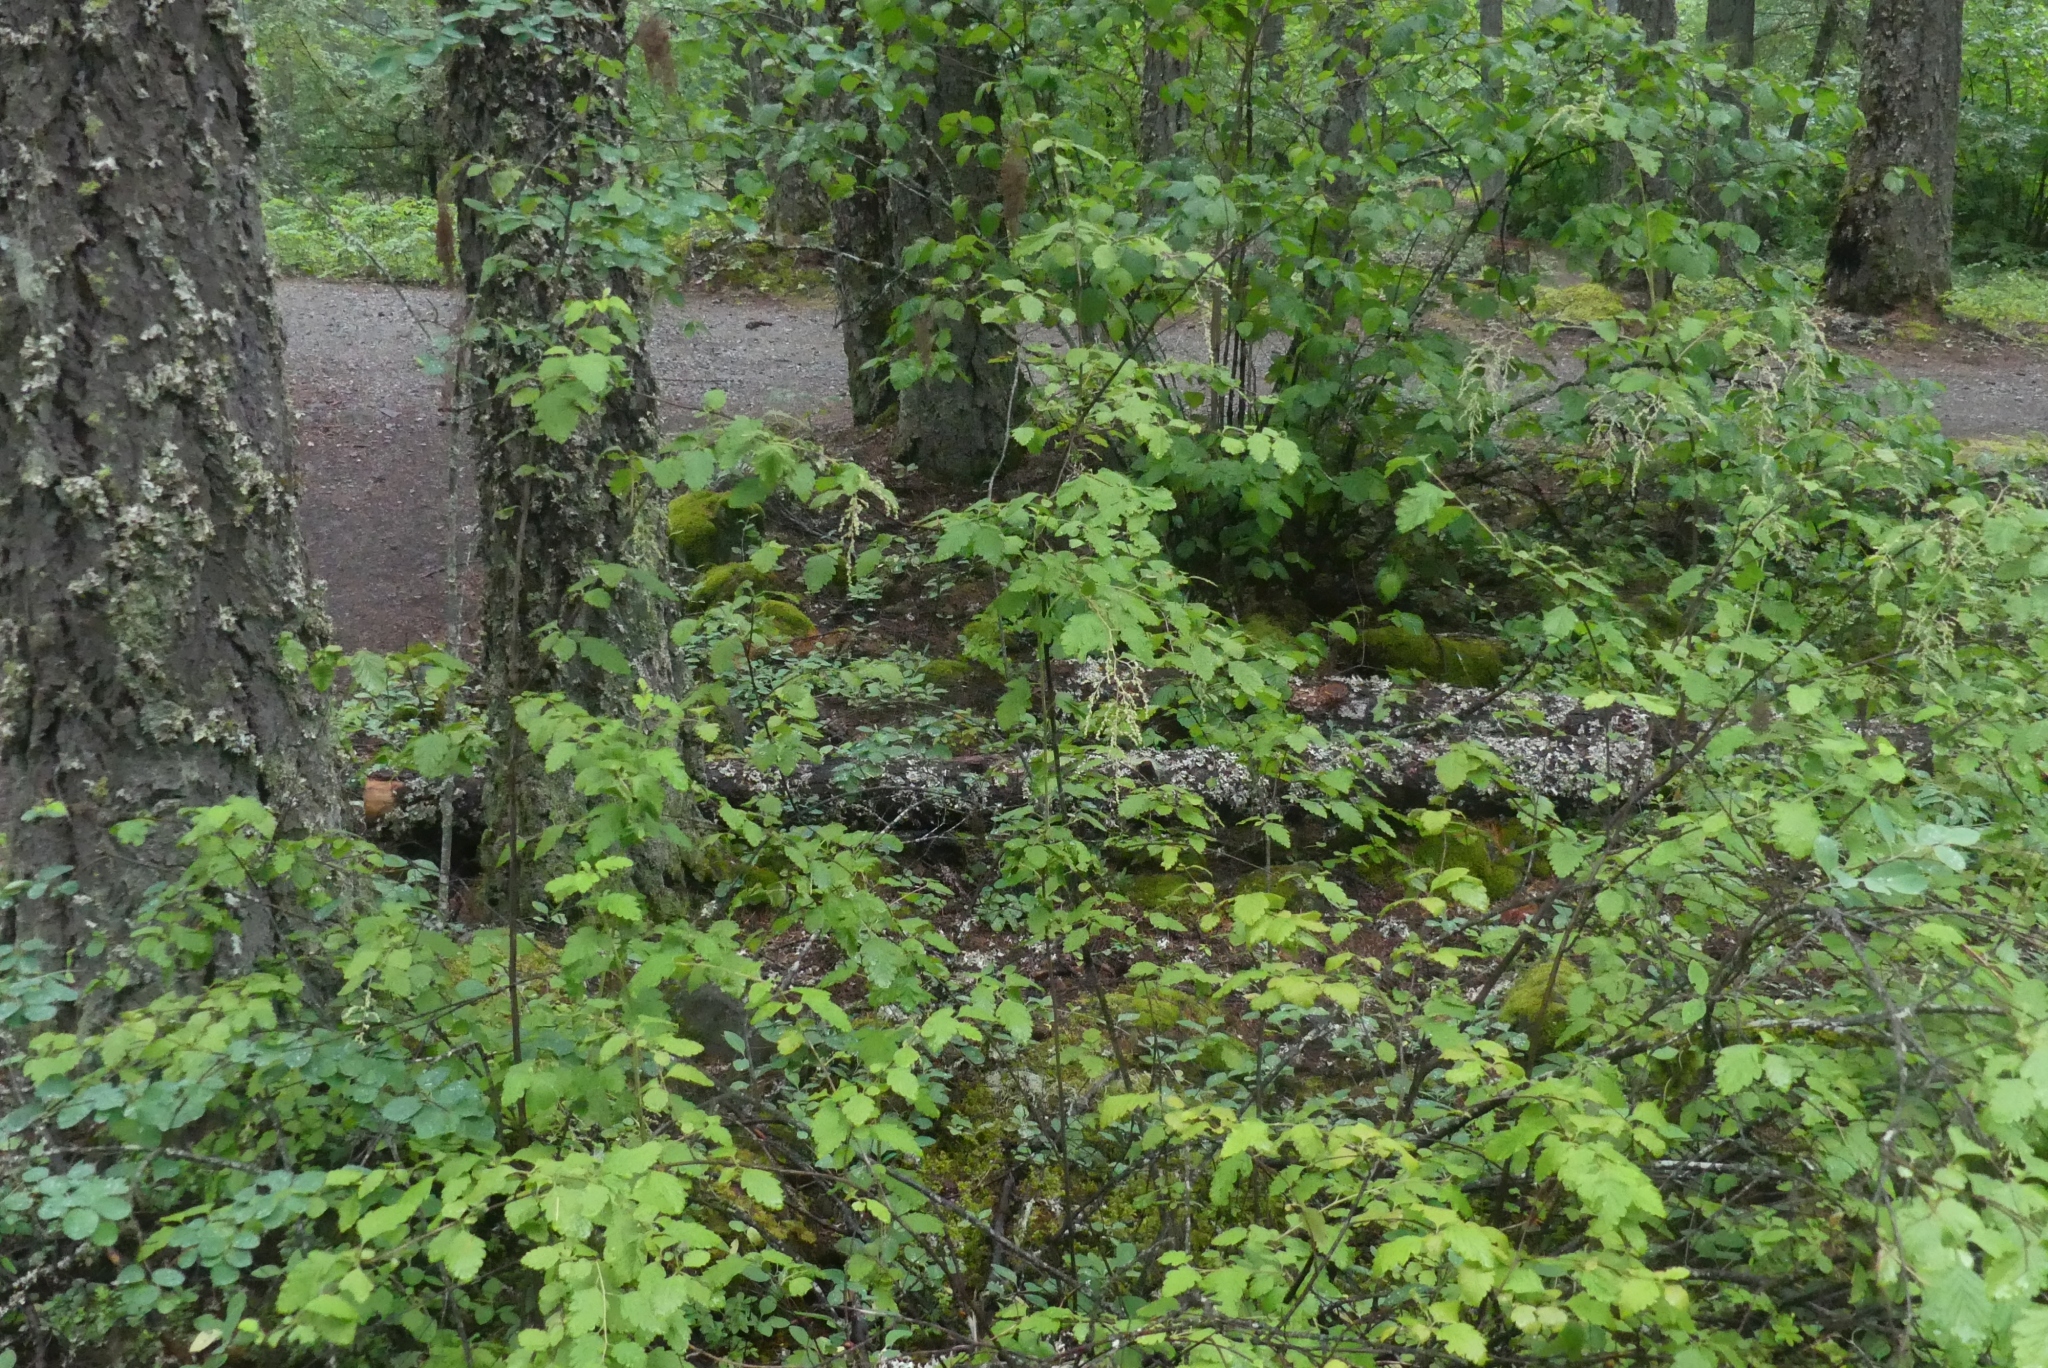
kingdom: Plantae
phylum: Tracheophyta
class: Magnoliopsida
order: Rosales
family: Rosaceae
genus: Holodiscus
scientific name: Holodiscus discolor
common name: Oceanspray
